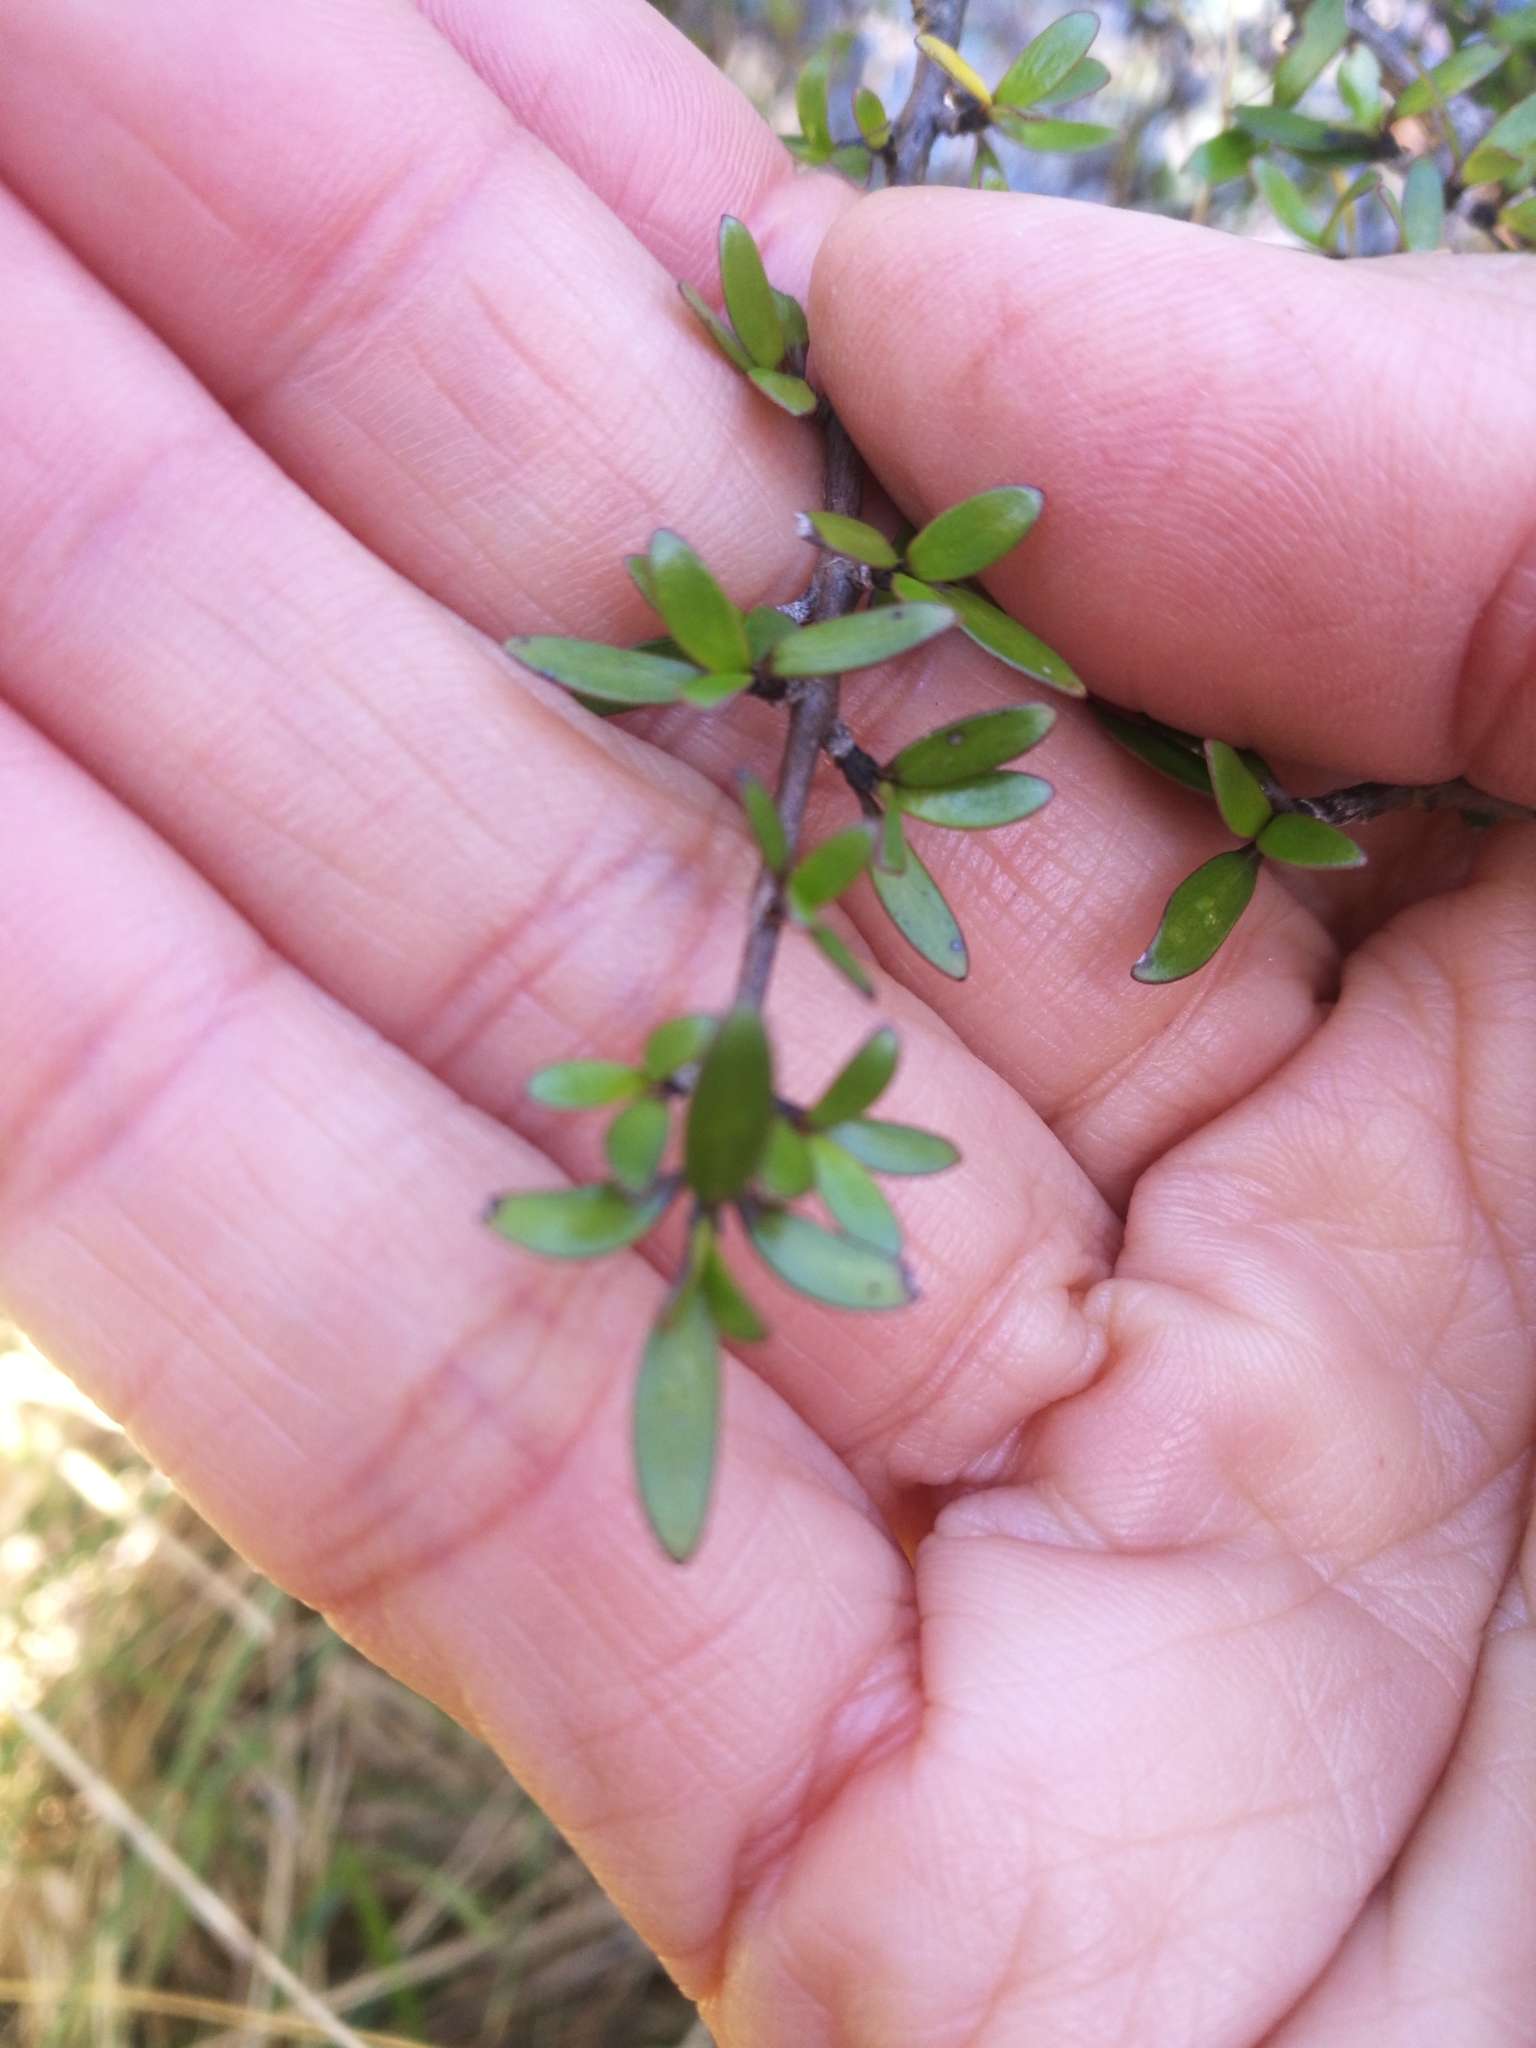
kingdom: Plantae
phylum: Tracheophyta
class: Magnoliopsida
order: Gentianales
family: Rubiaceae
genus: Coprosma
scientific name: Coprosma propinqua
